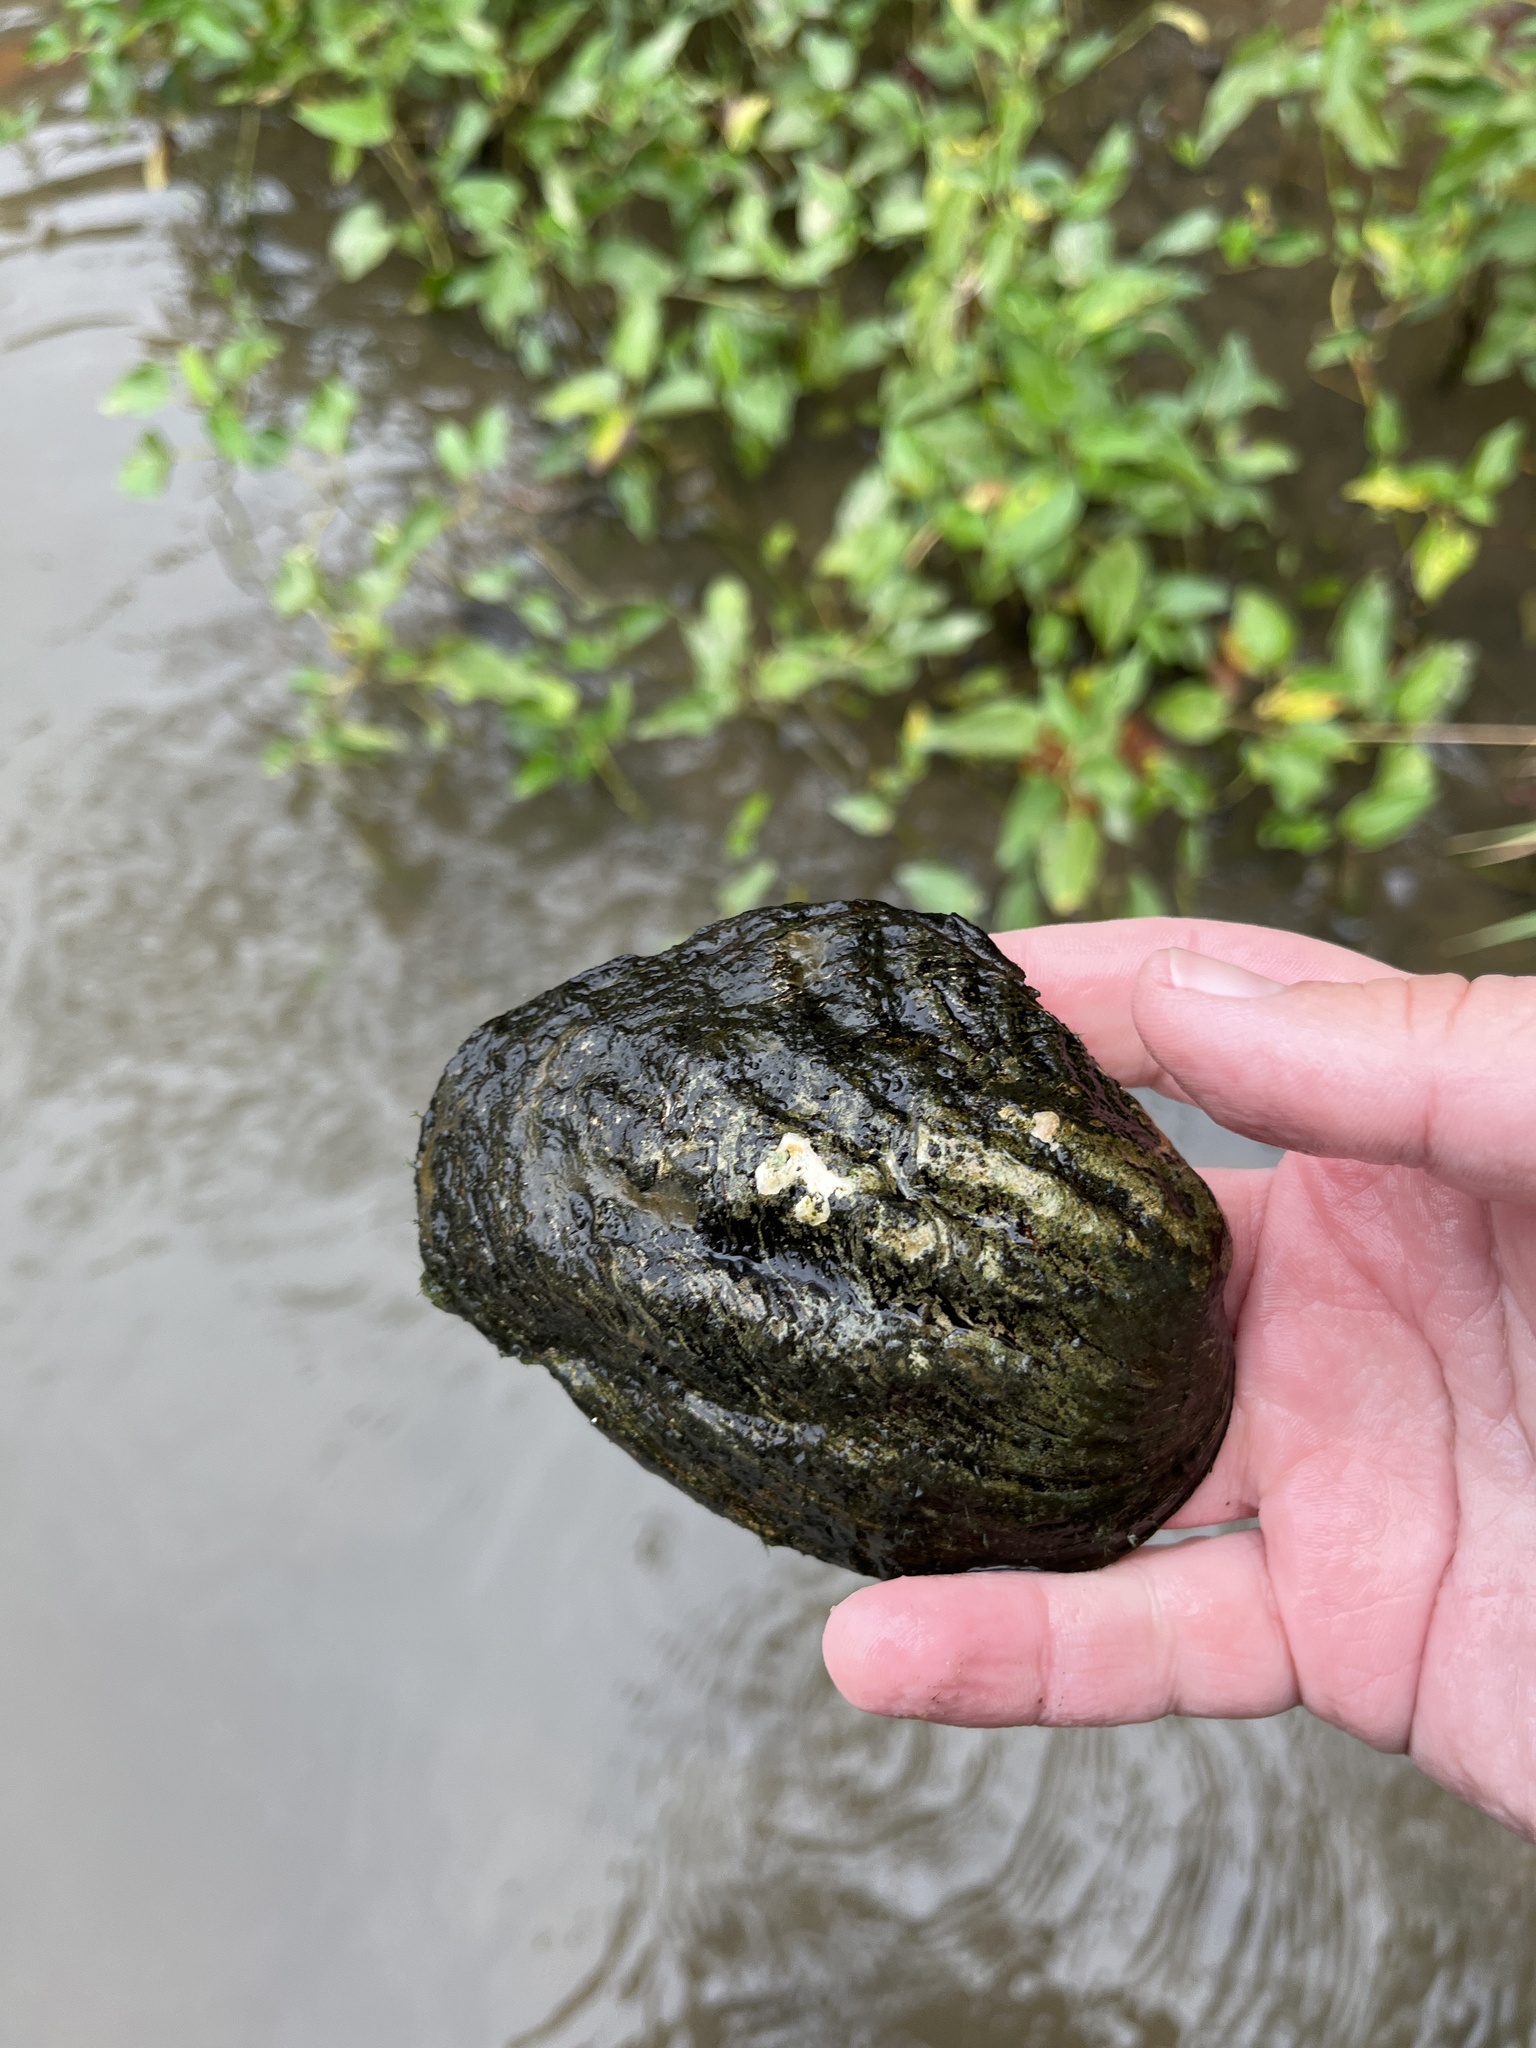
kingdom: Animalia
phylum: Mollusca
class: Bivalvia
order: Unionida
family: Unionidae
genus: Amblema
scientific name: Amblema plicata
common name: Threeridge
